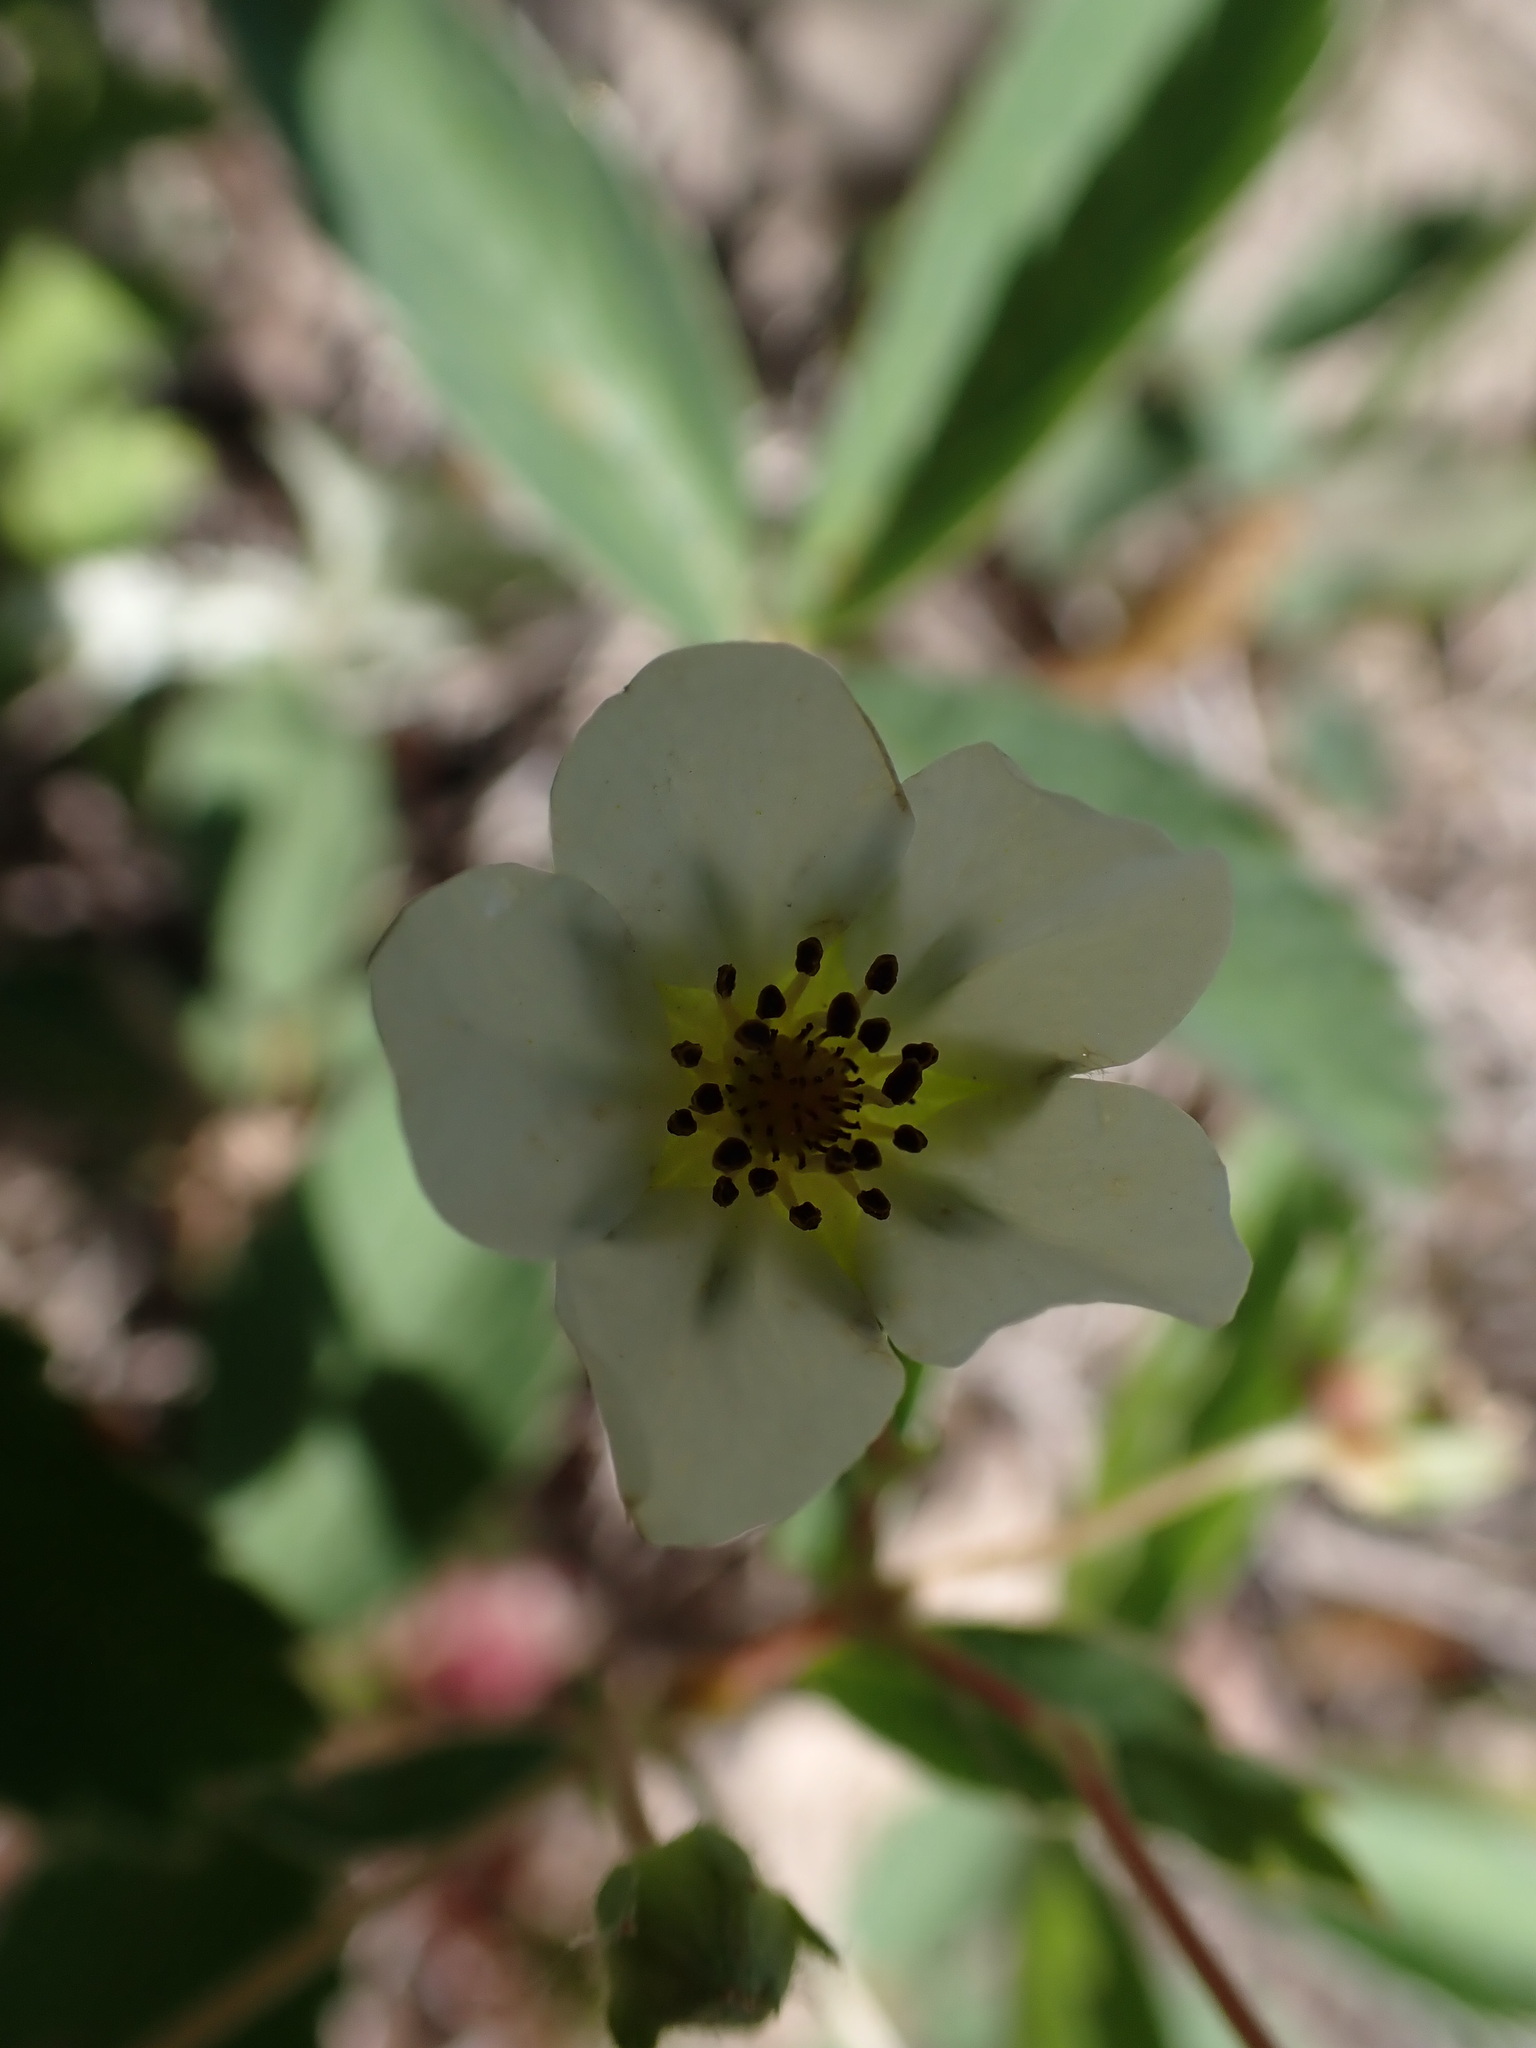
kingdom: Plantae
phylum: Tracheophyta
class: Magnoliopsida
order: Rosales
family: Rosaceae
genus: Fragaria
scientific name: Fragaria virginiana
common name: Thickleaved wild strawberry
